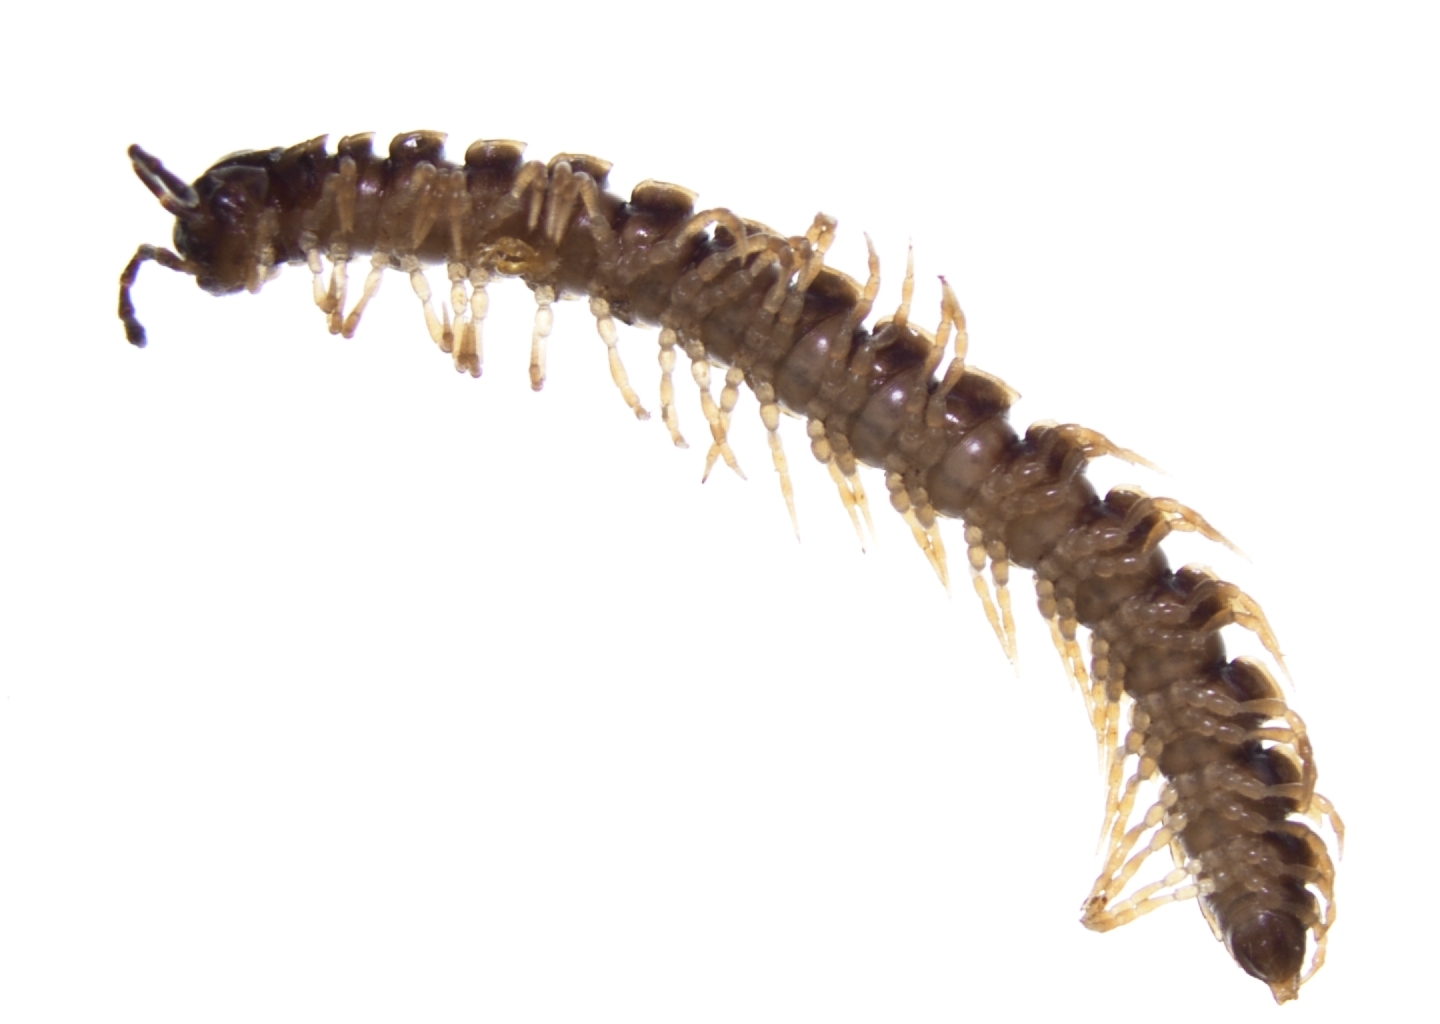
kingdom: Animalia
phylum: Arthropoda
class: Diplopoda
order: Polydesmida
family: Paradoxosomatidae
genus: Oxidus
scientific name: Oxidus gracilis
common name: Greenhouse millipede
